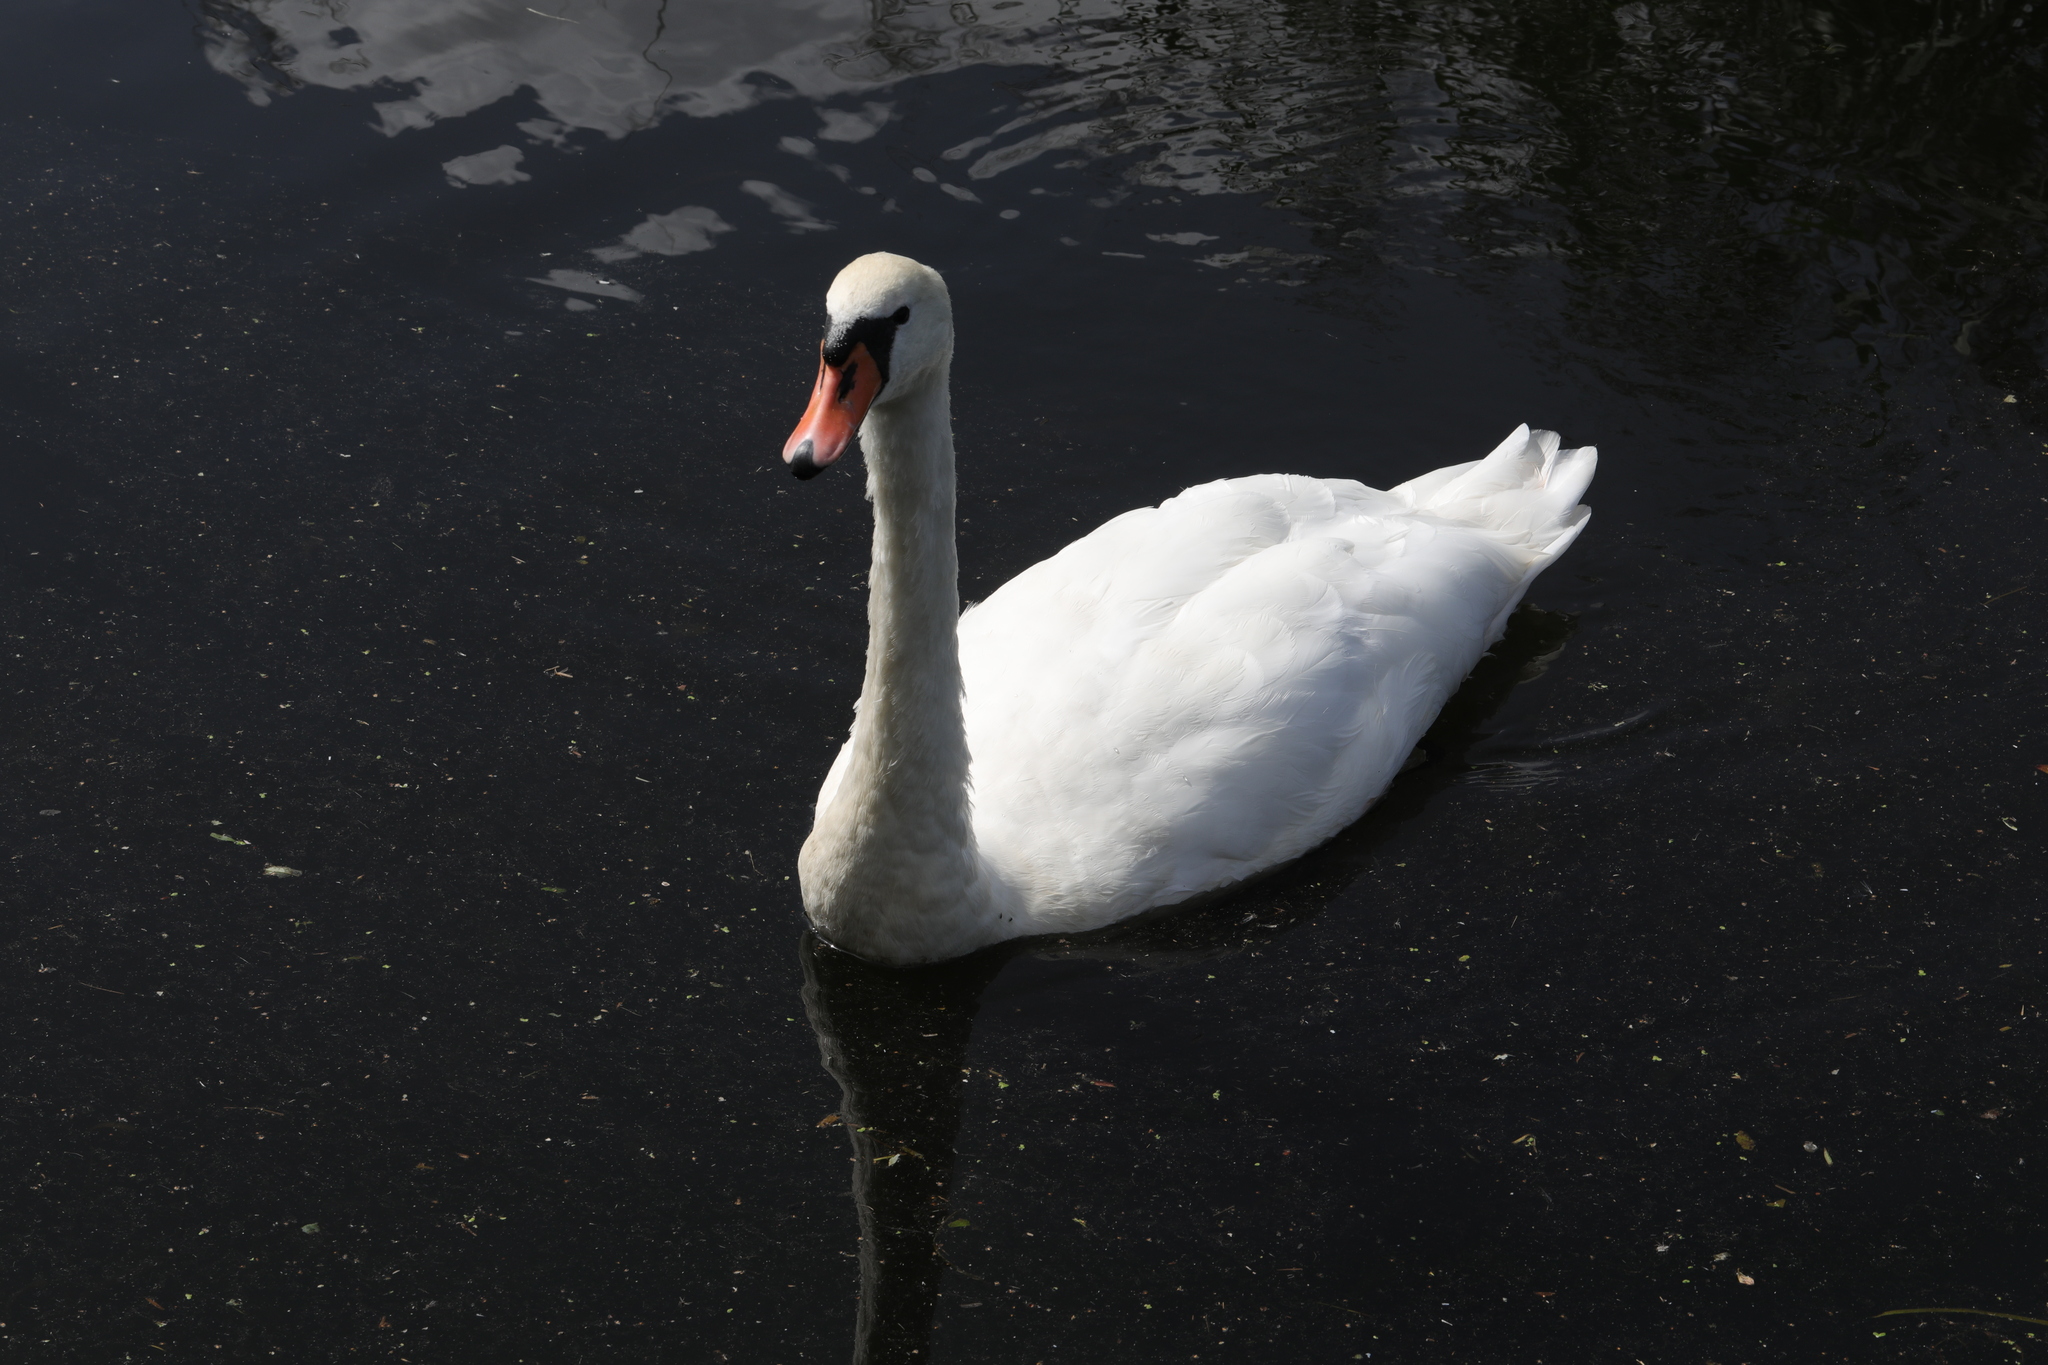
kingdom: Animalia
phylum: Chordata
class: Aves
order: Anseriformes
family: Anatidae
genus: Cygnus
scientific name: Cygnus olor
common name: Mute swan
